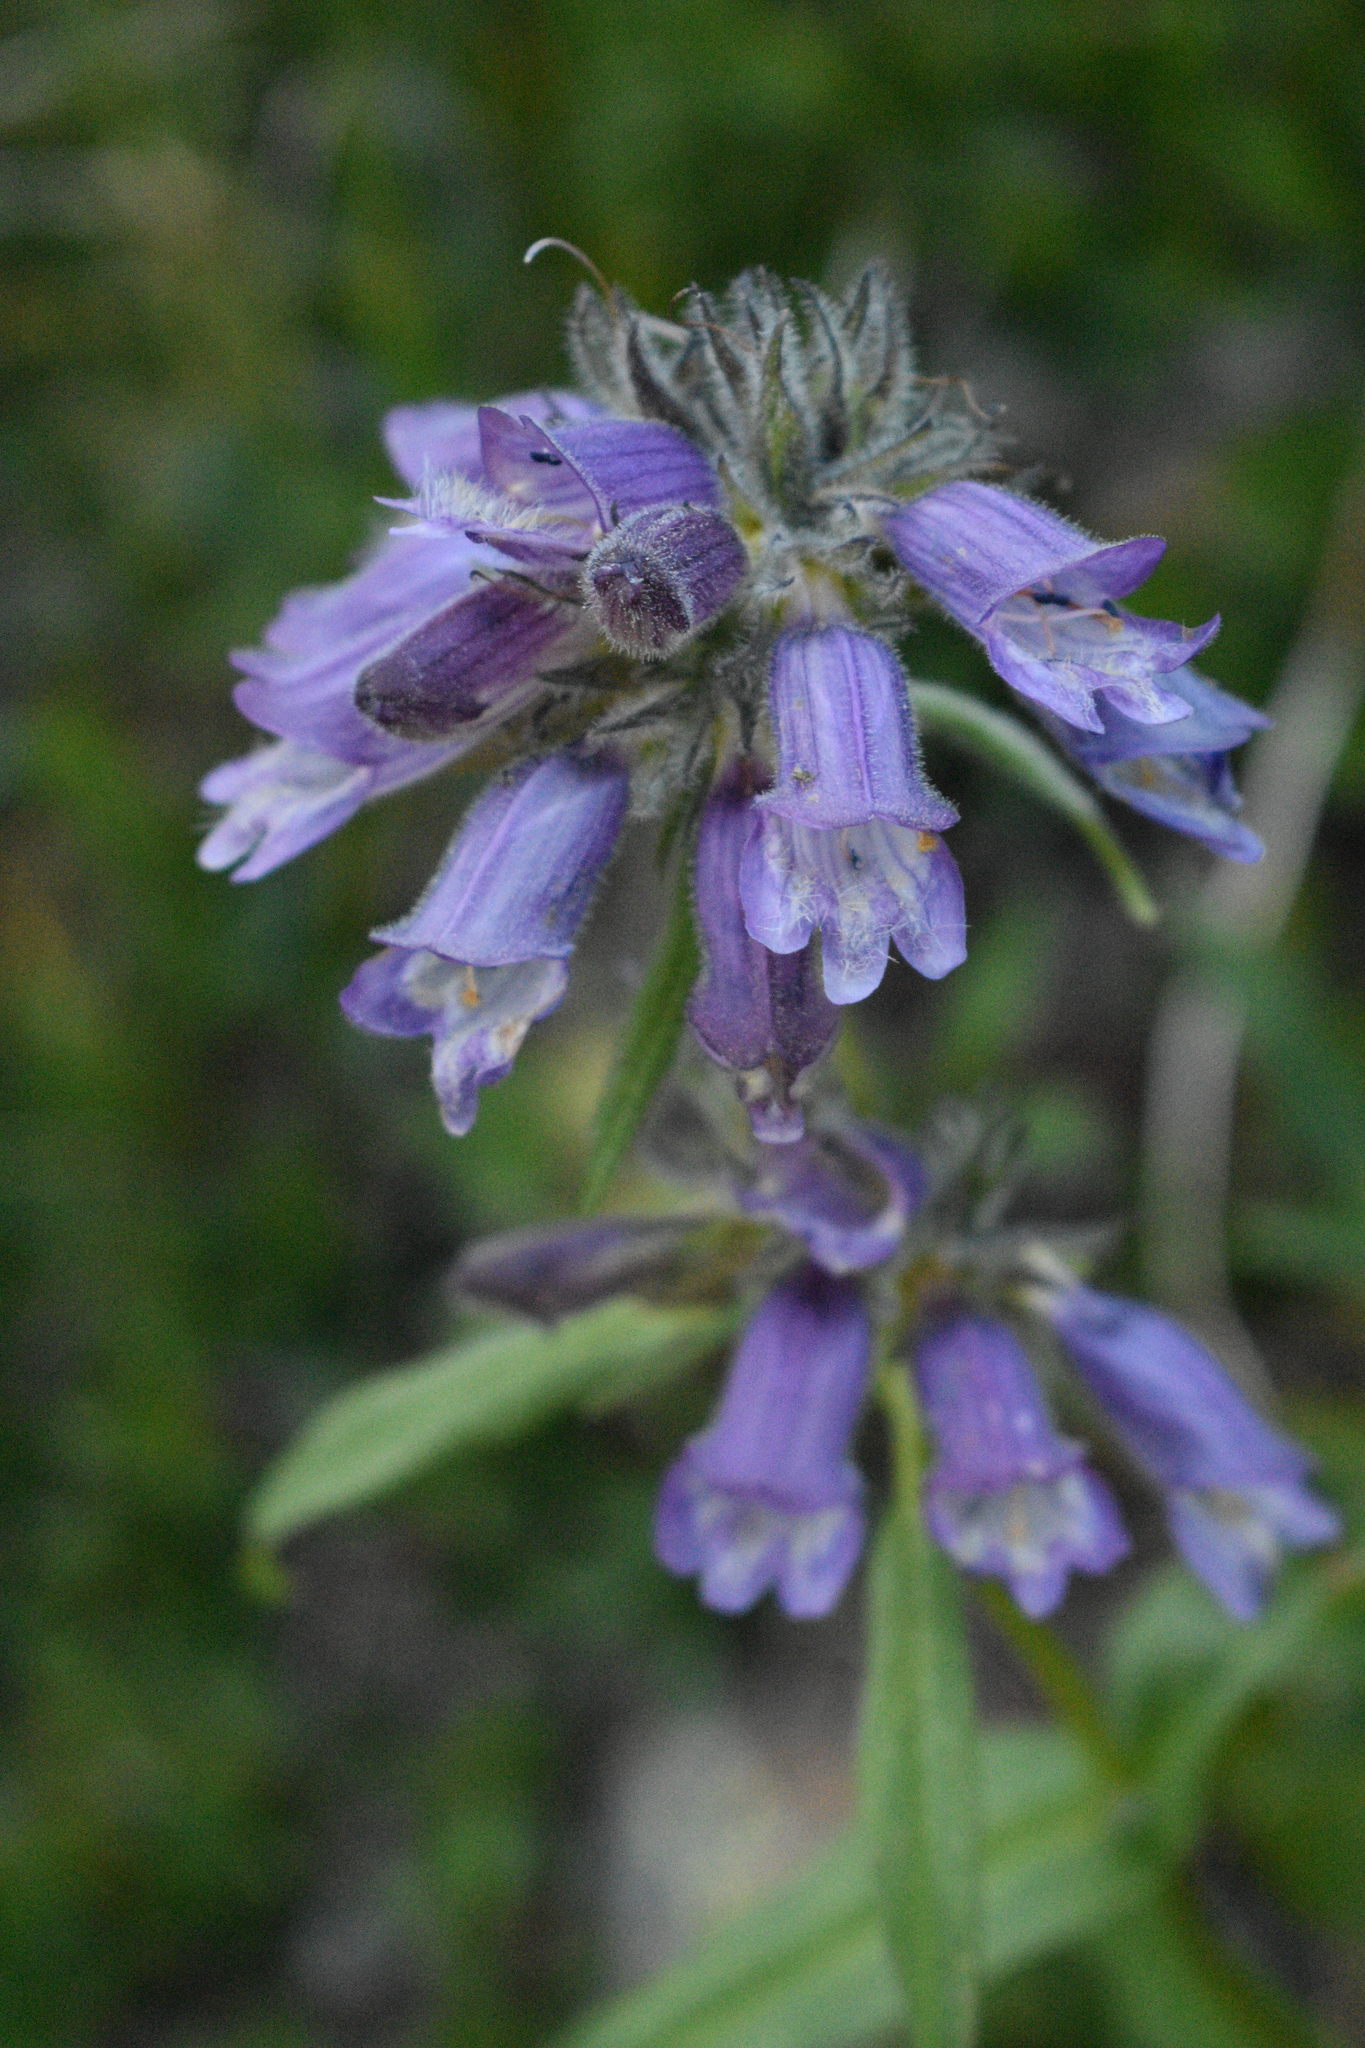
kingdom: Plantae
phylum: Tracheophyta
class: Magnoliopsida
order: Lamiales
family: Plantaginaceae
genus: Penstemon
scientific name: Penstemon whippleanus
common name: Whipple's penstemon
